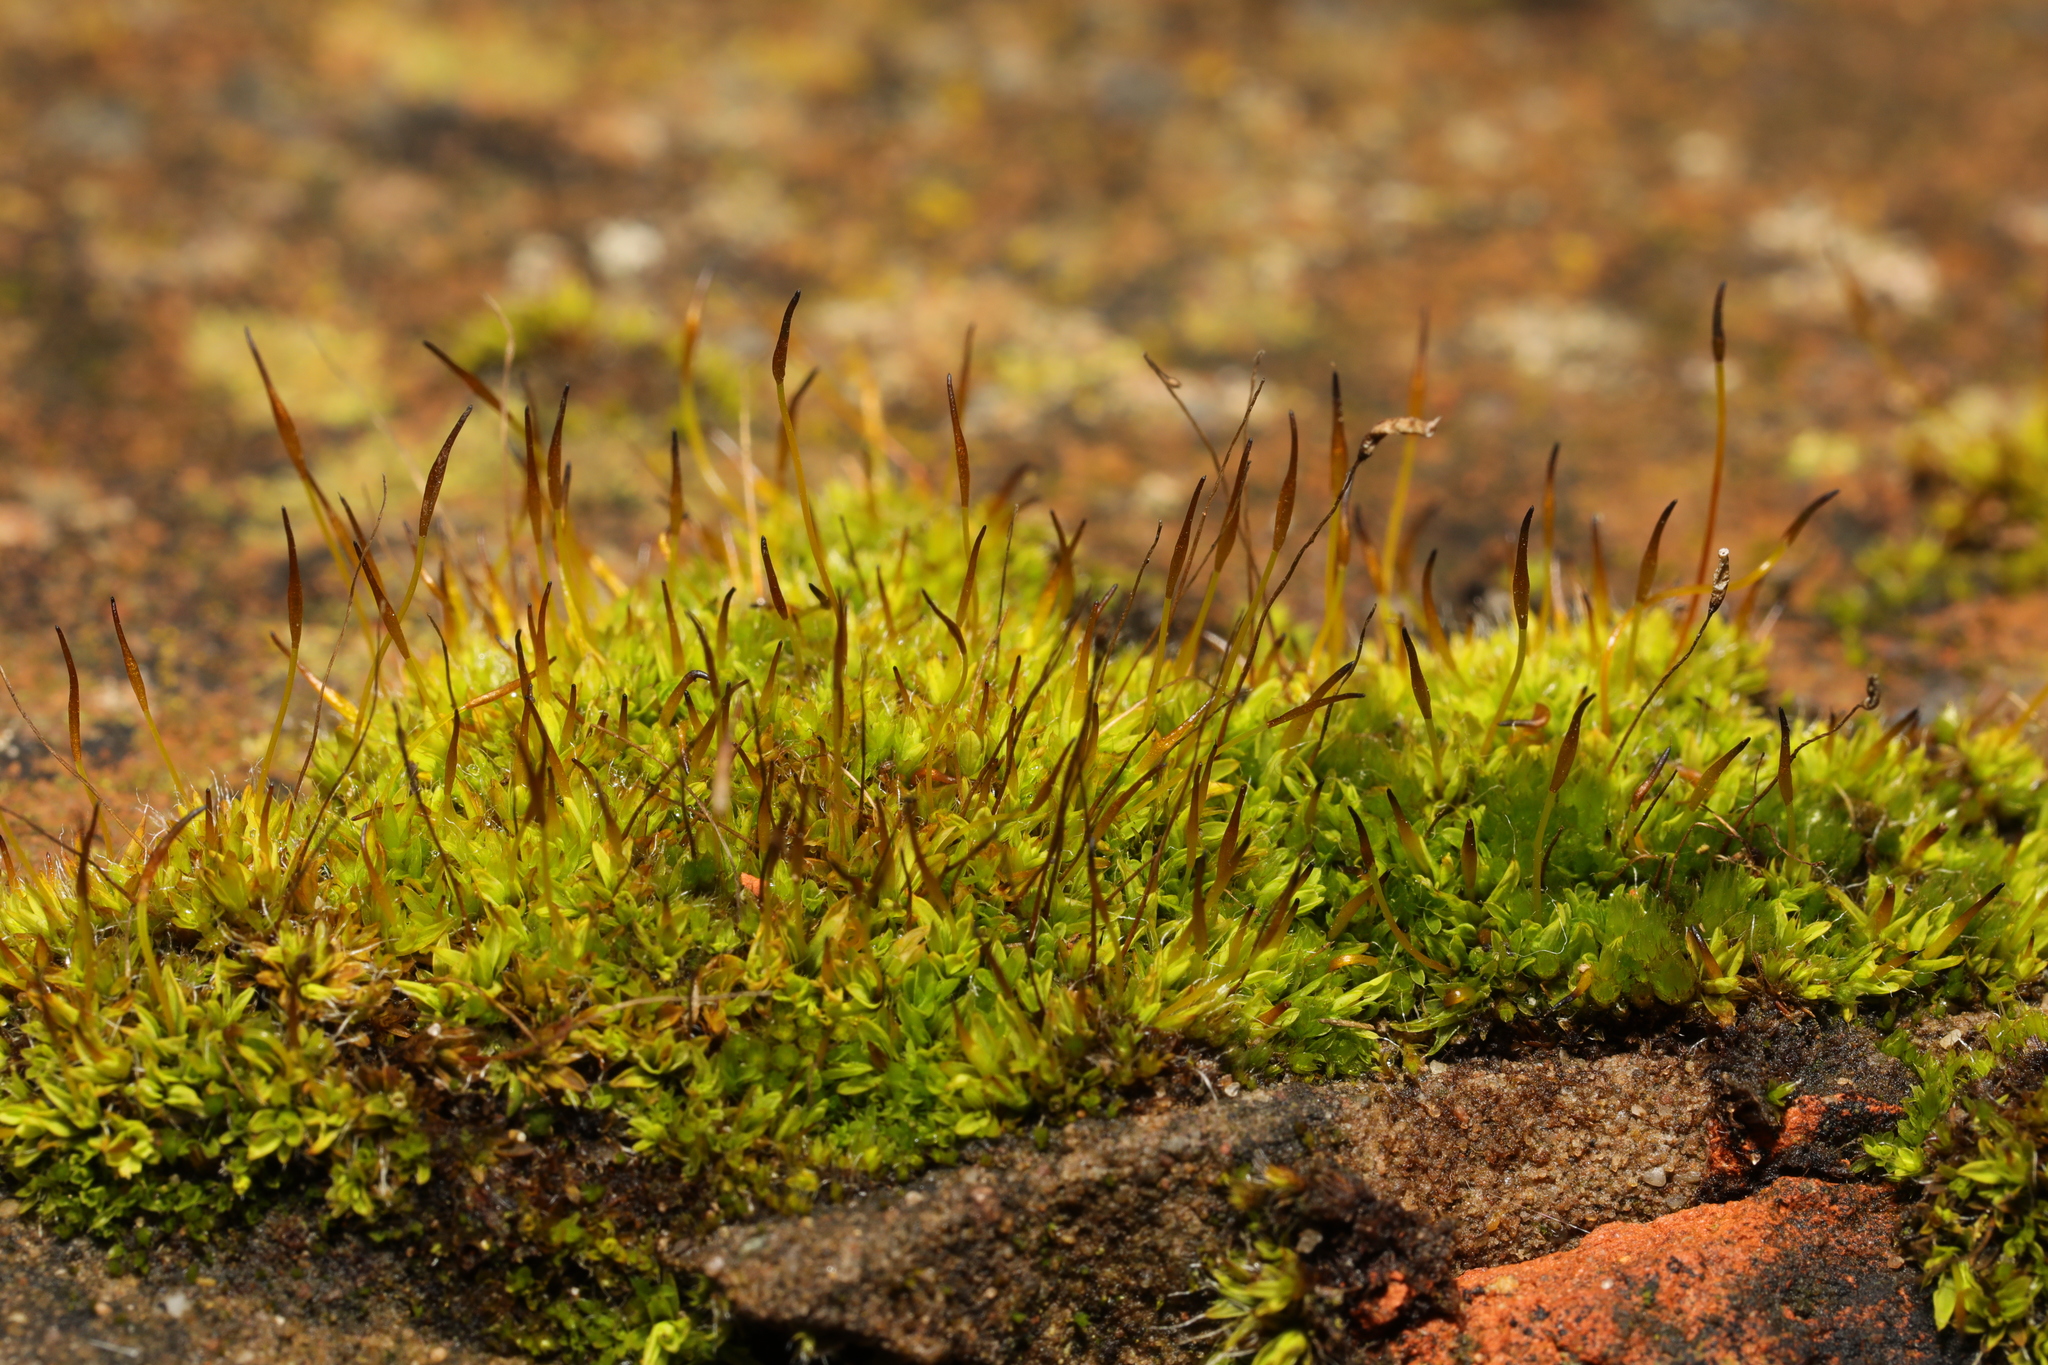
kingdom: Plantae
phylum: Bryophyta
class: Bryopsida
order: Pottiales
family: Pottiaceae
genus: Tortula
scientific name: Tortula muralis
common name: Wall screw-moss
